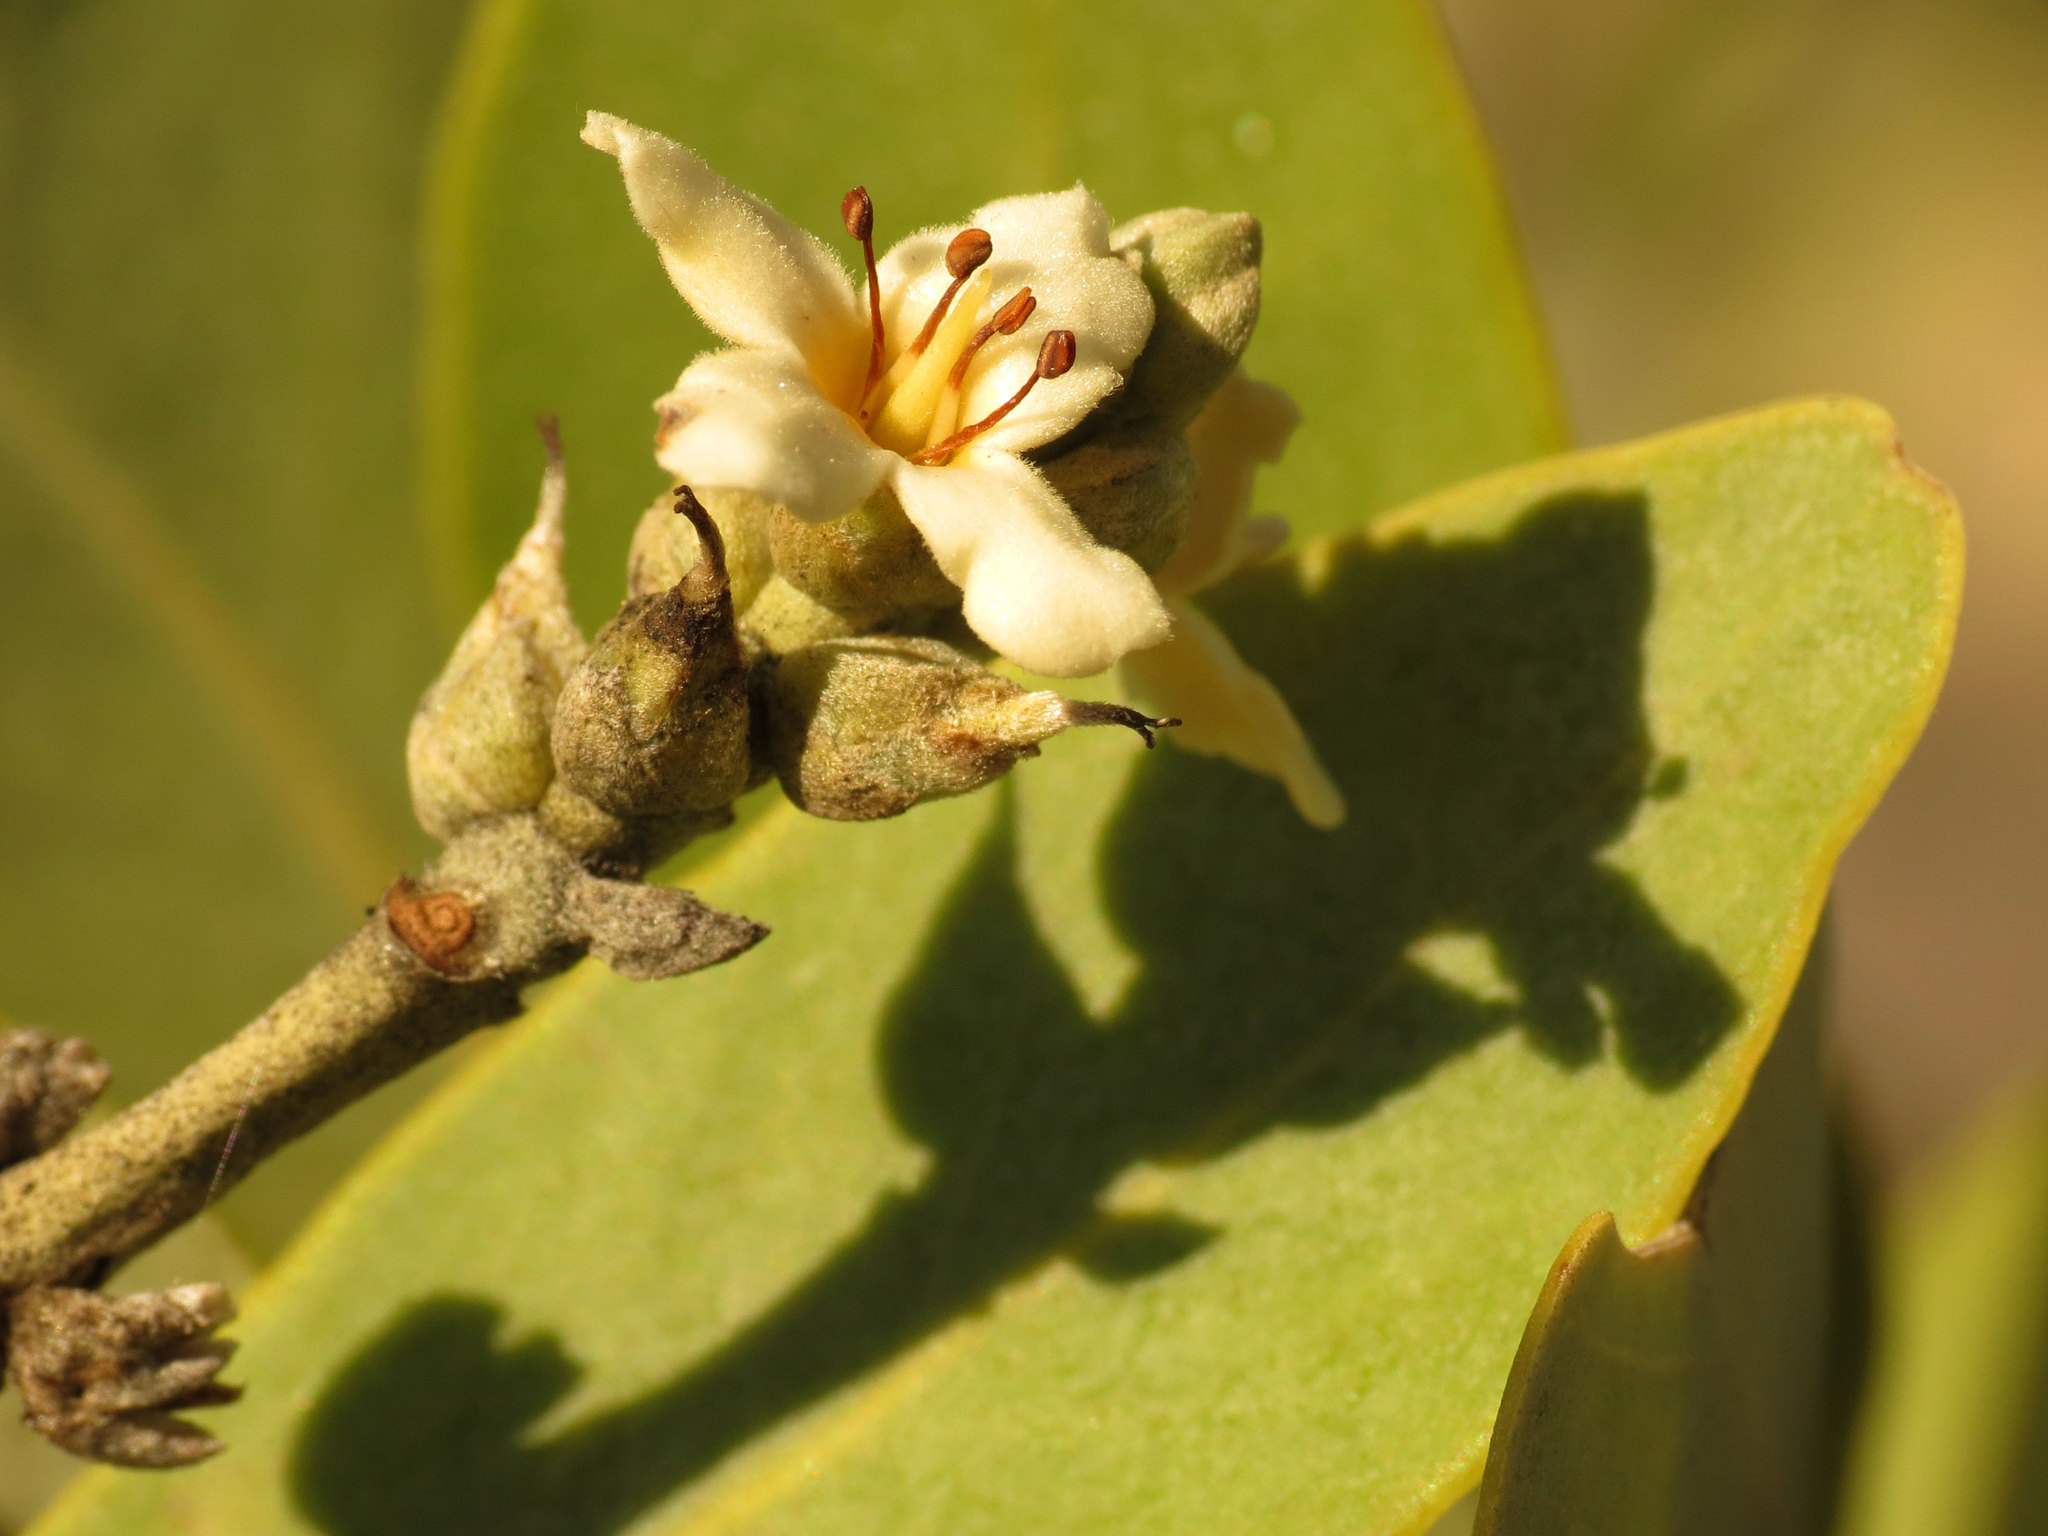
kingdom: Plantae
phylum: Tracheophyta
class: Magnoliopsida
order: Lamiales
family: Acanthaceae
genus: Avicennia
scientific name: Avicennia germinans
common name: Black mangrove
